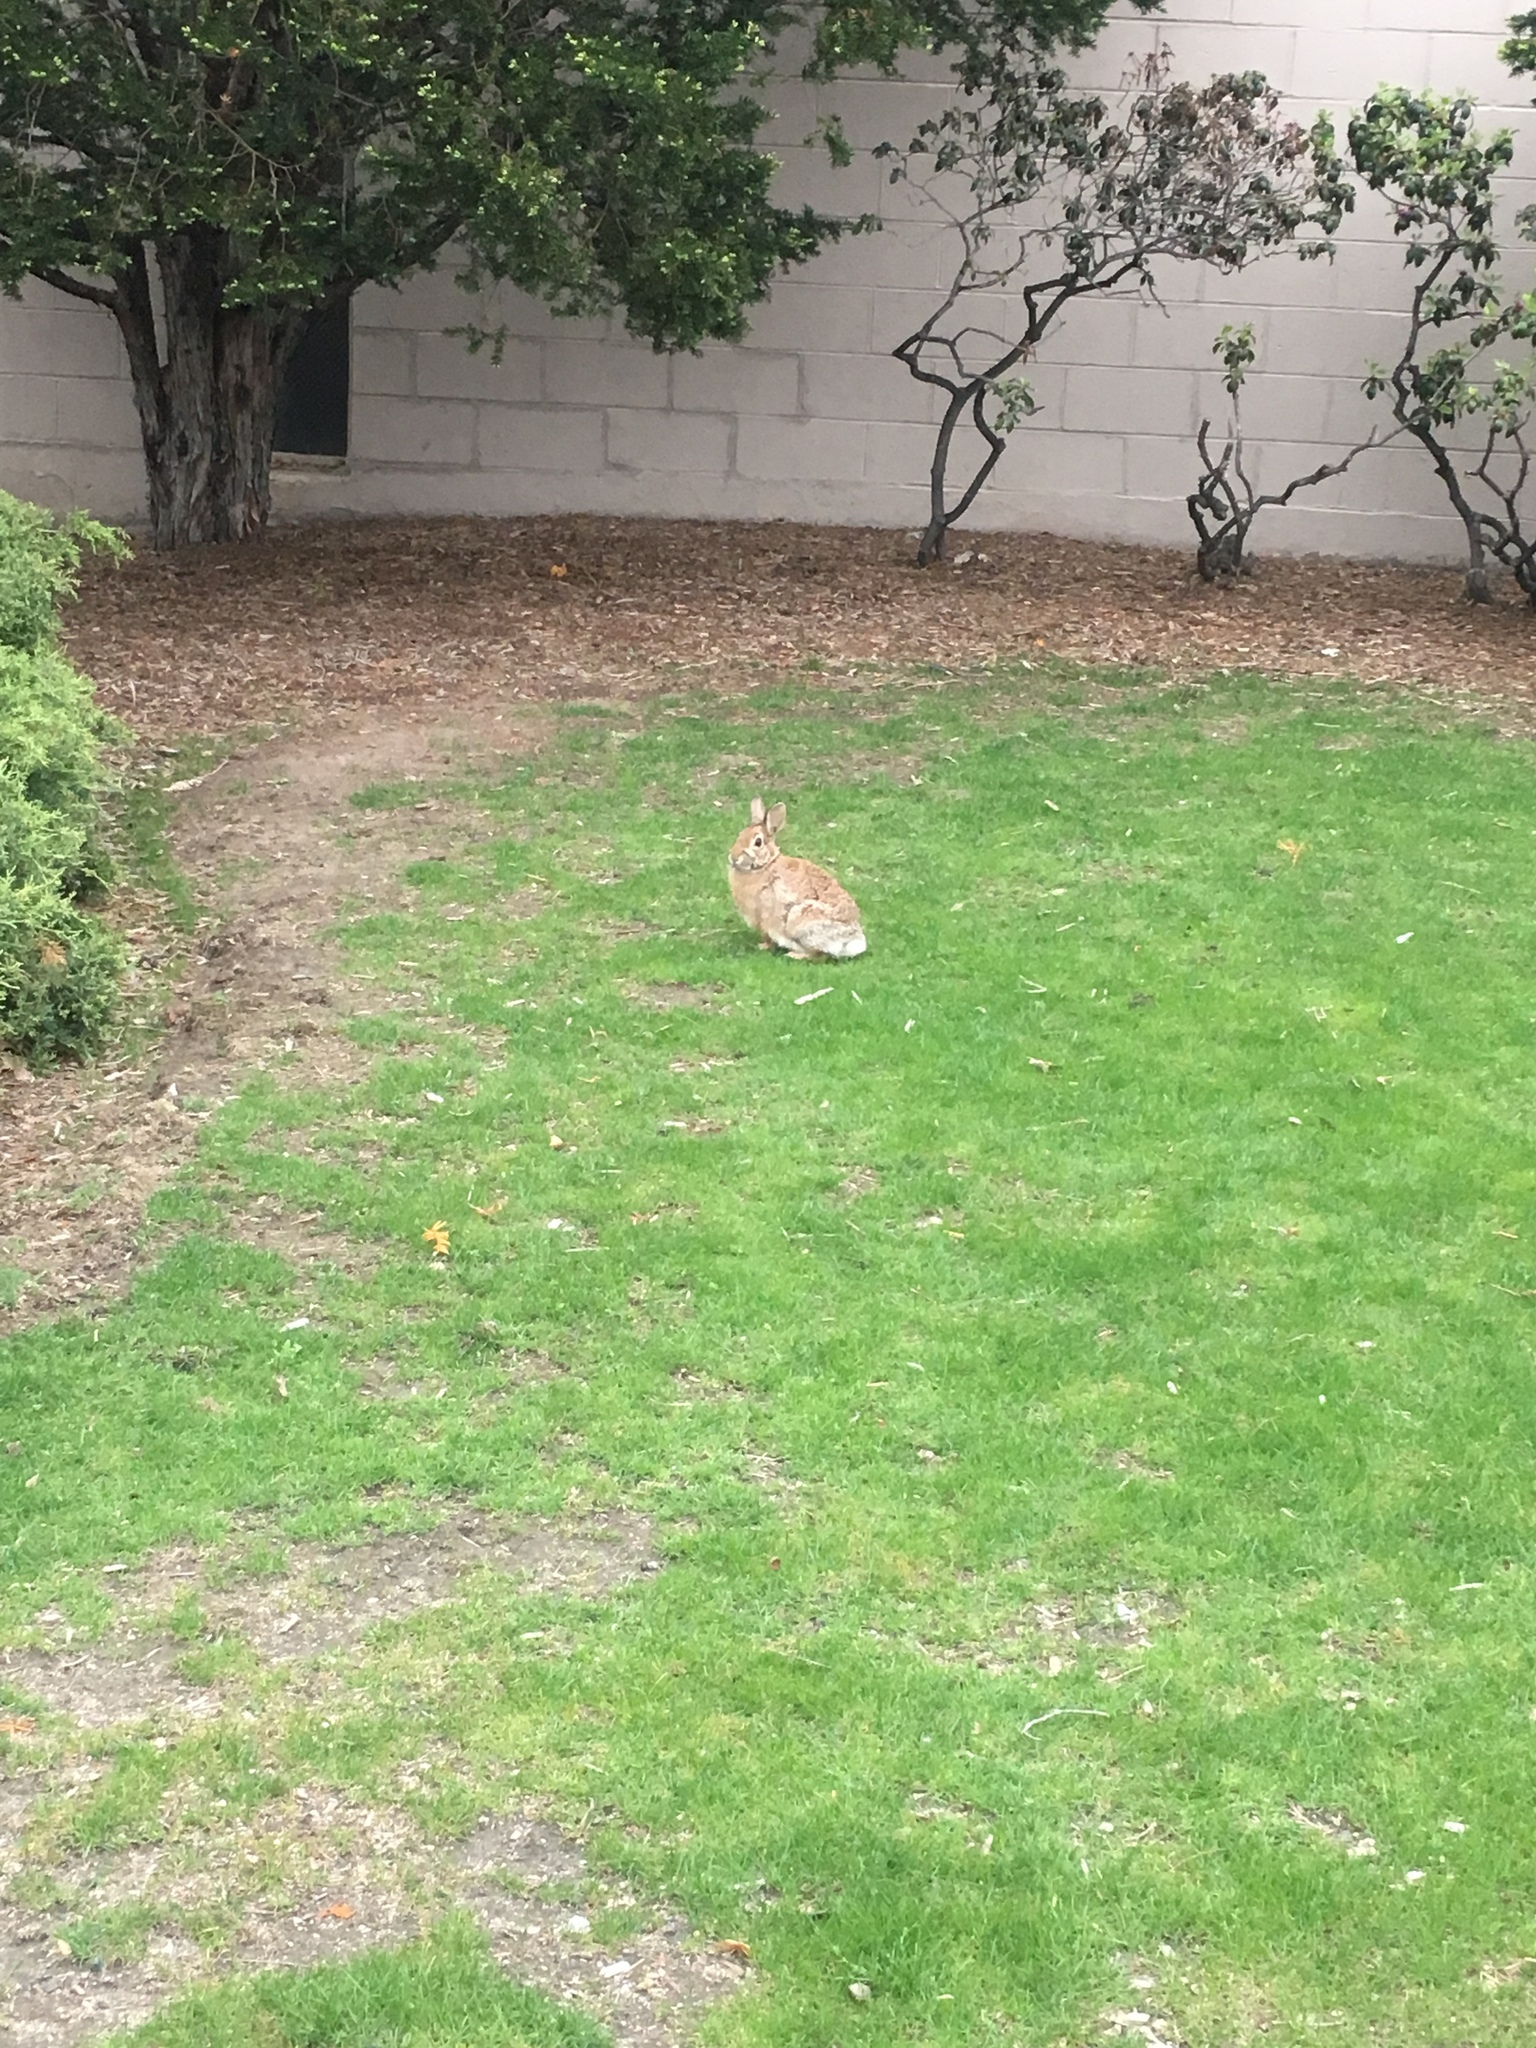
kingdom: Animalia
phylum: Chordata
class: Mammalia
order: Lagomorpha
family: Leporidae
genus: Sylvilagus
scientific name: Sylvilagus floridanus
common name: Eastern cottontail
